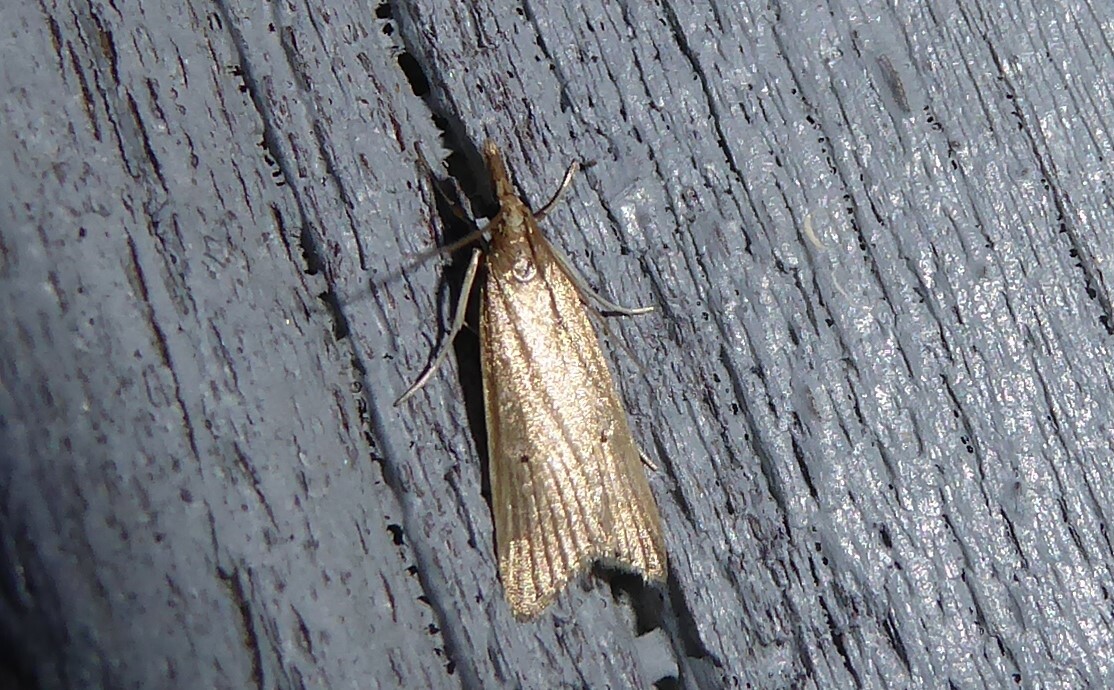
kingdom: Animalia
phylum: Arthropoda
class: Insecta
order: Lepidoptera
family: Crambidae
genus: Antiscopa
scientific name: Antiscopa elaphra
